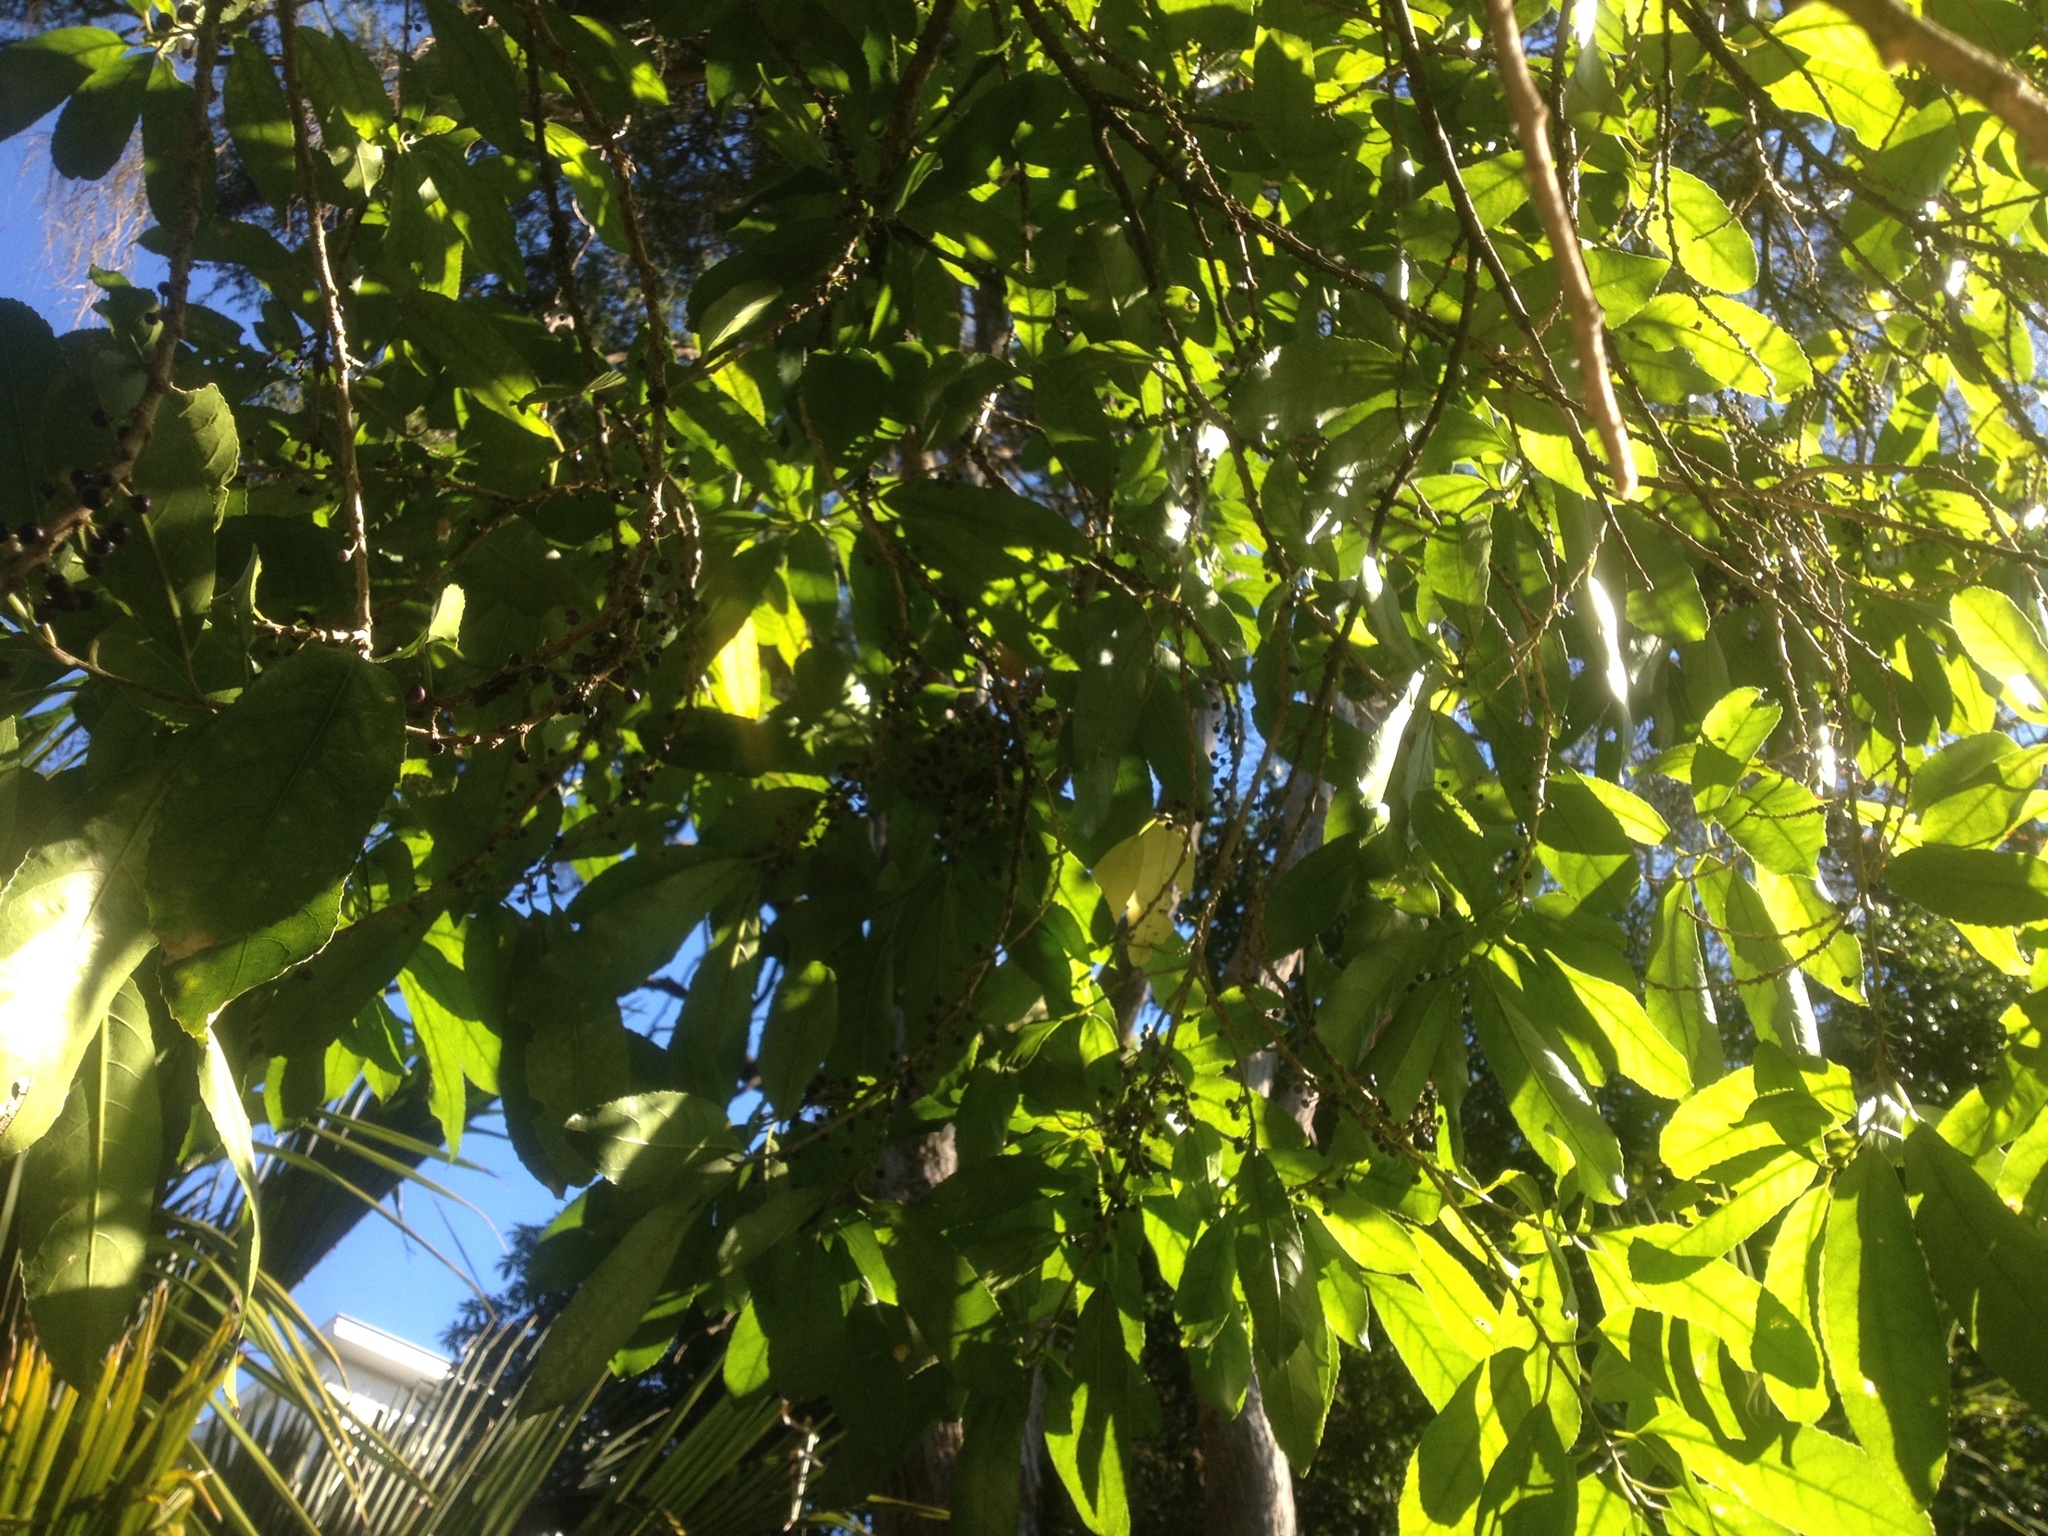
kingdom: Plantae
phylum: Tracheophyta
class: Magnoliopsida
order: Malpighiales
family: Violaceae
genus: Melicytus
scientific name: Melicytus ramiflorus
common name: Mahoe
